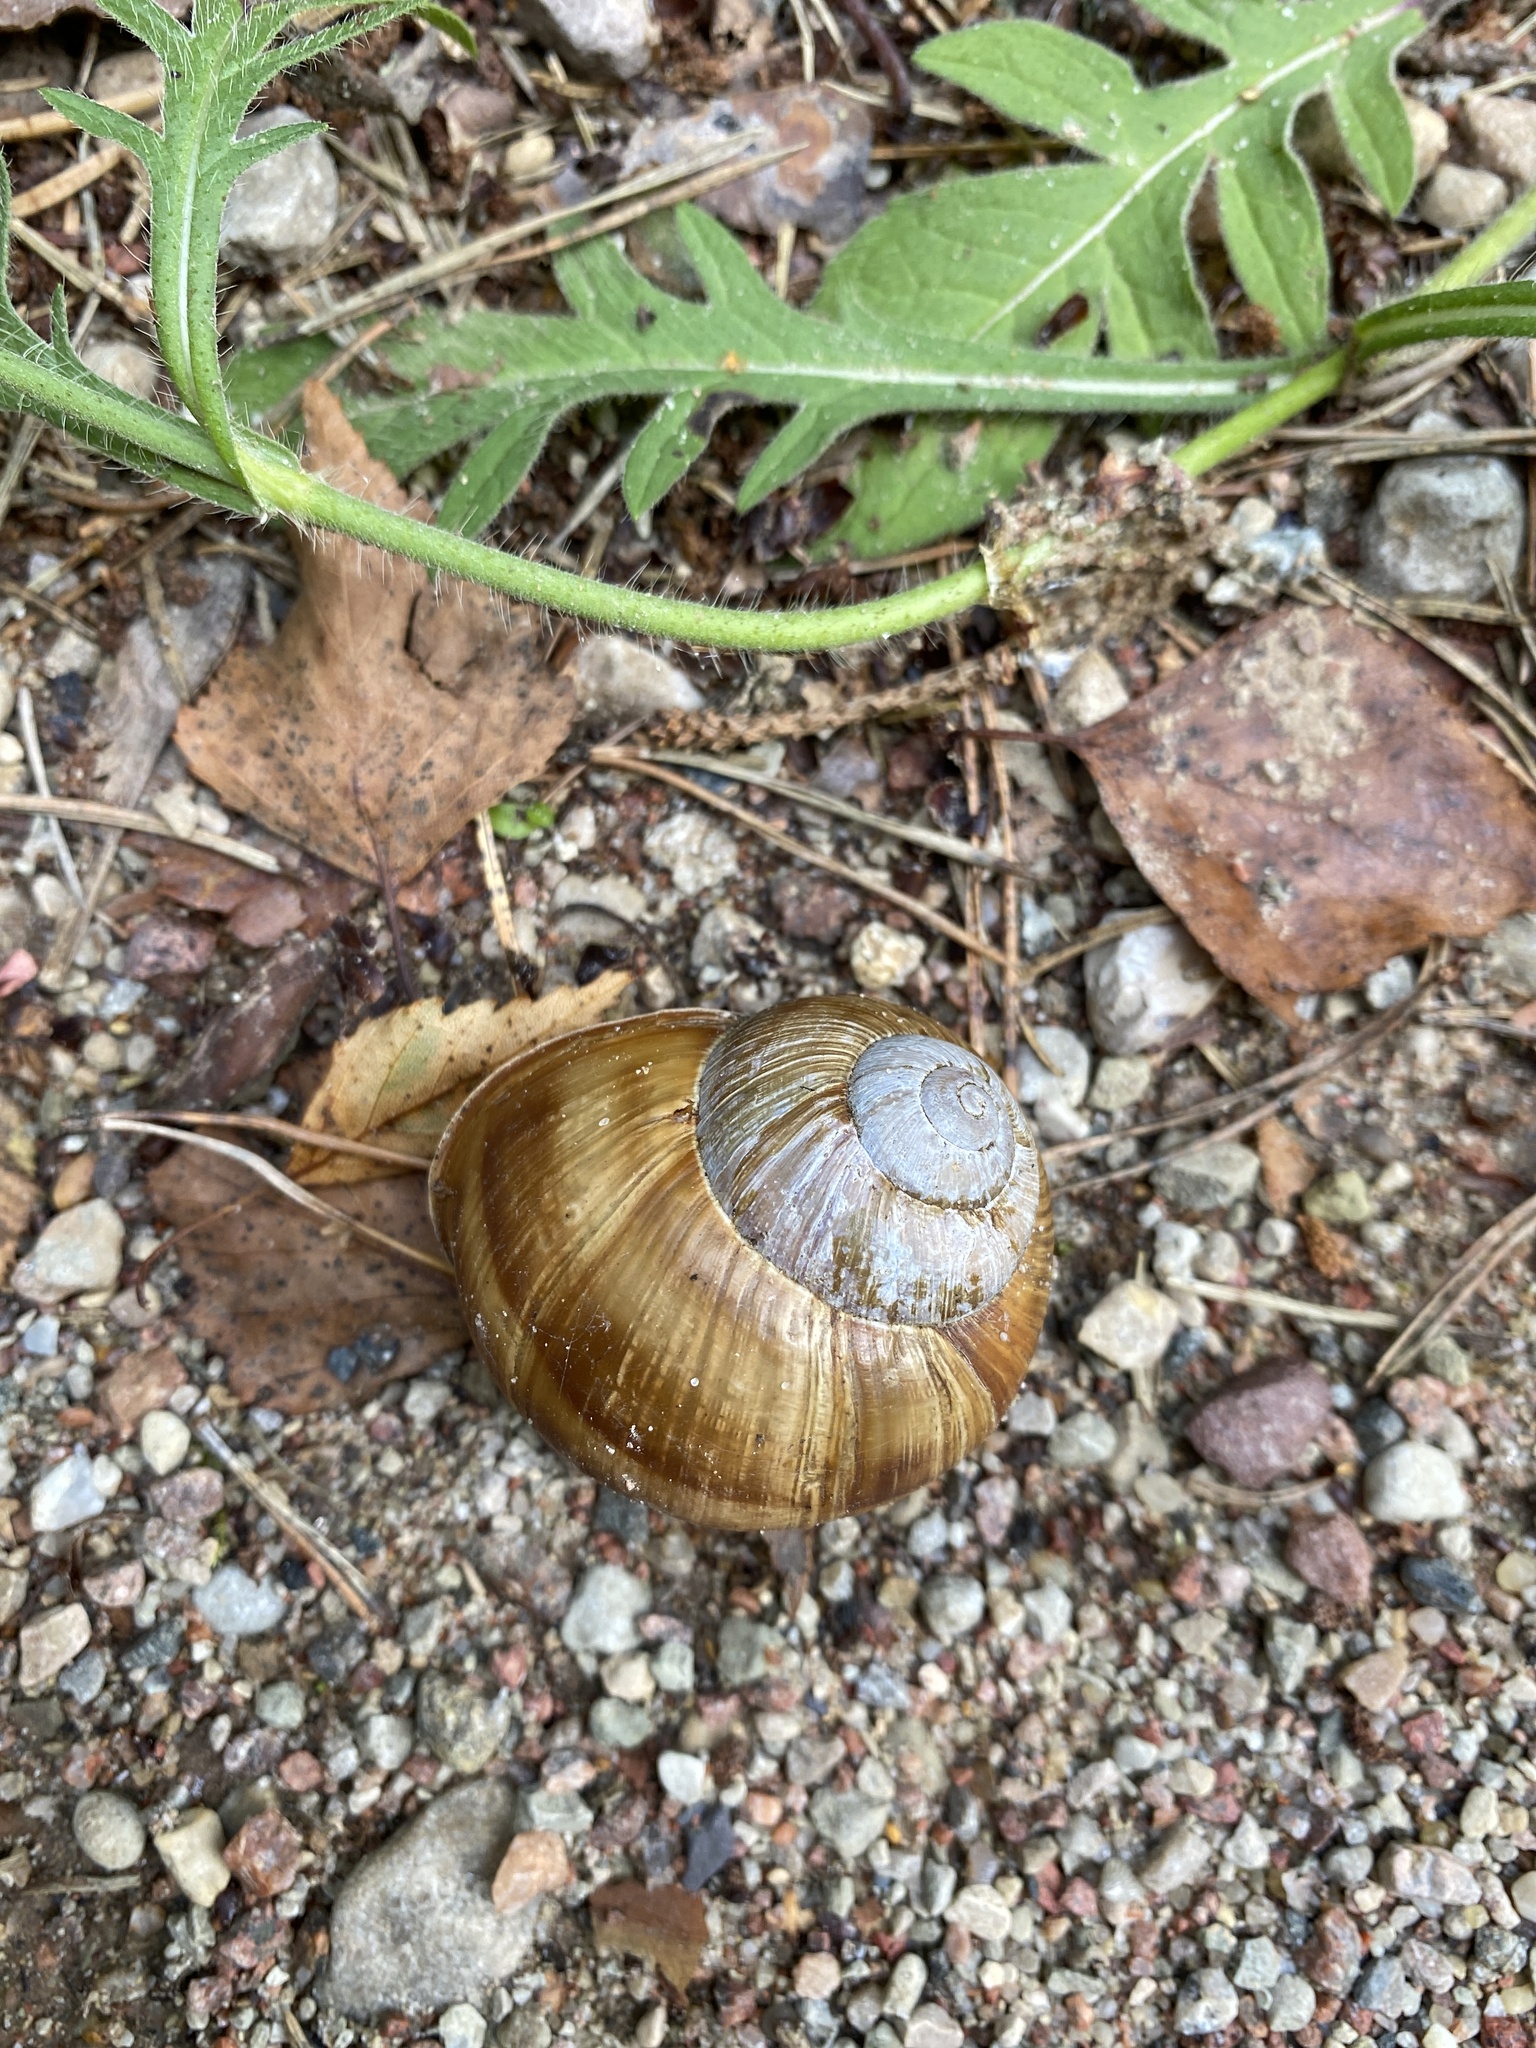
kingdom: Animalia
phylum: Mollusca
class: Gastropoda
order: Stylommatophora
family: Helicidae
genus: Helix
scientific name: Helix pomatia
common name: Roman snail
